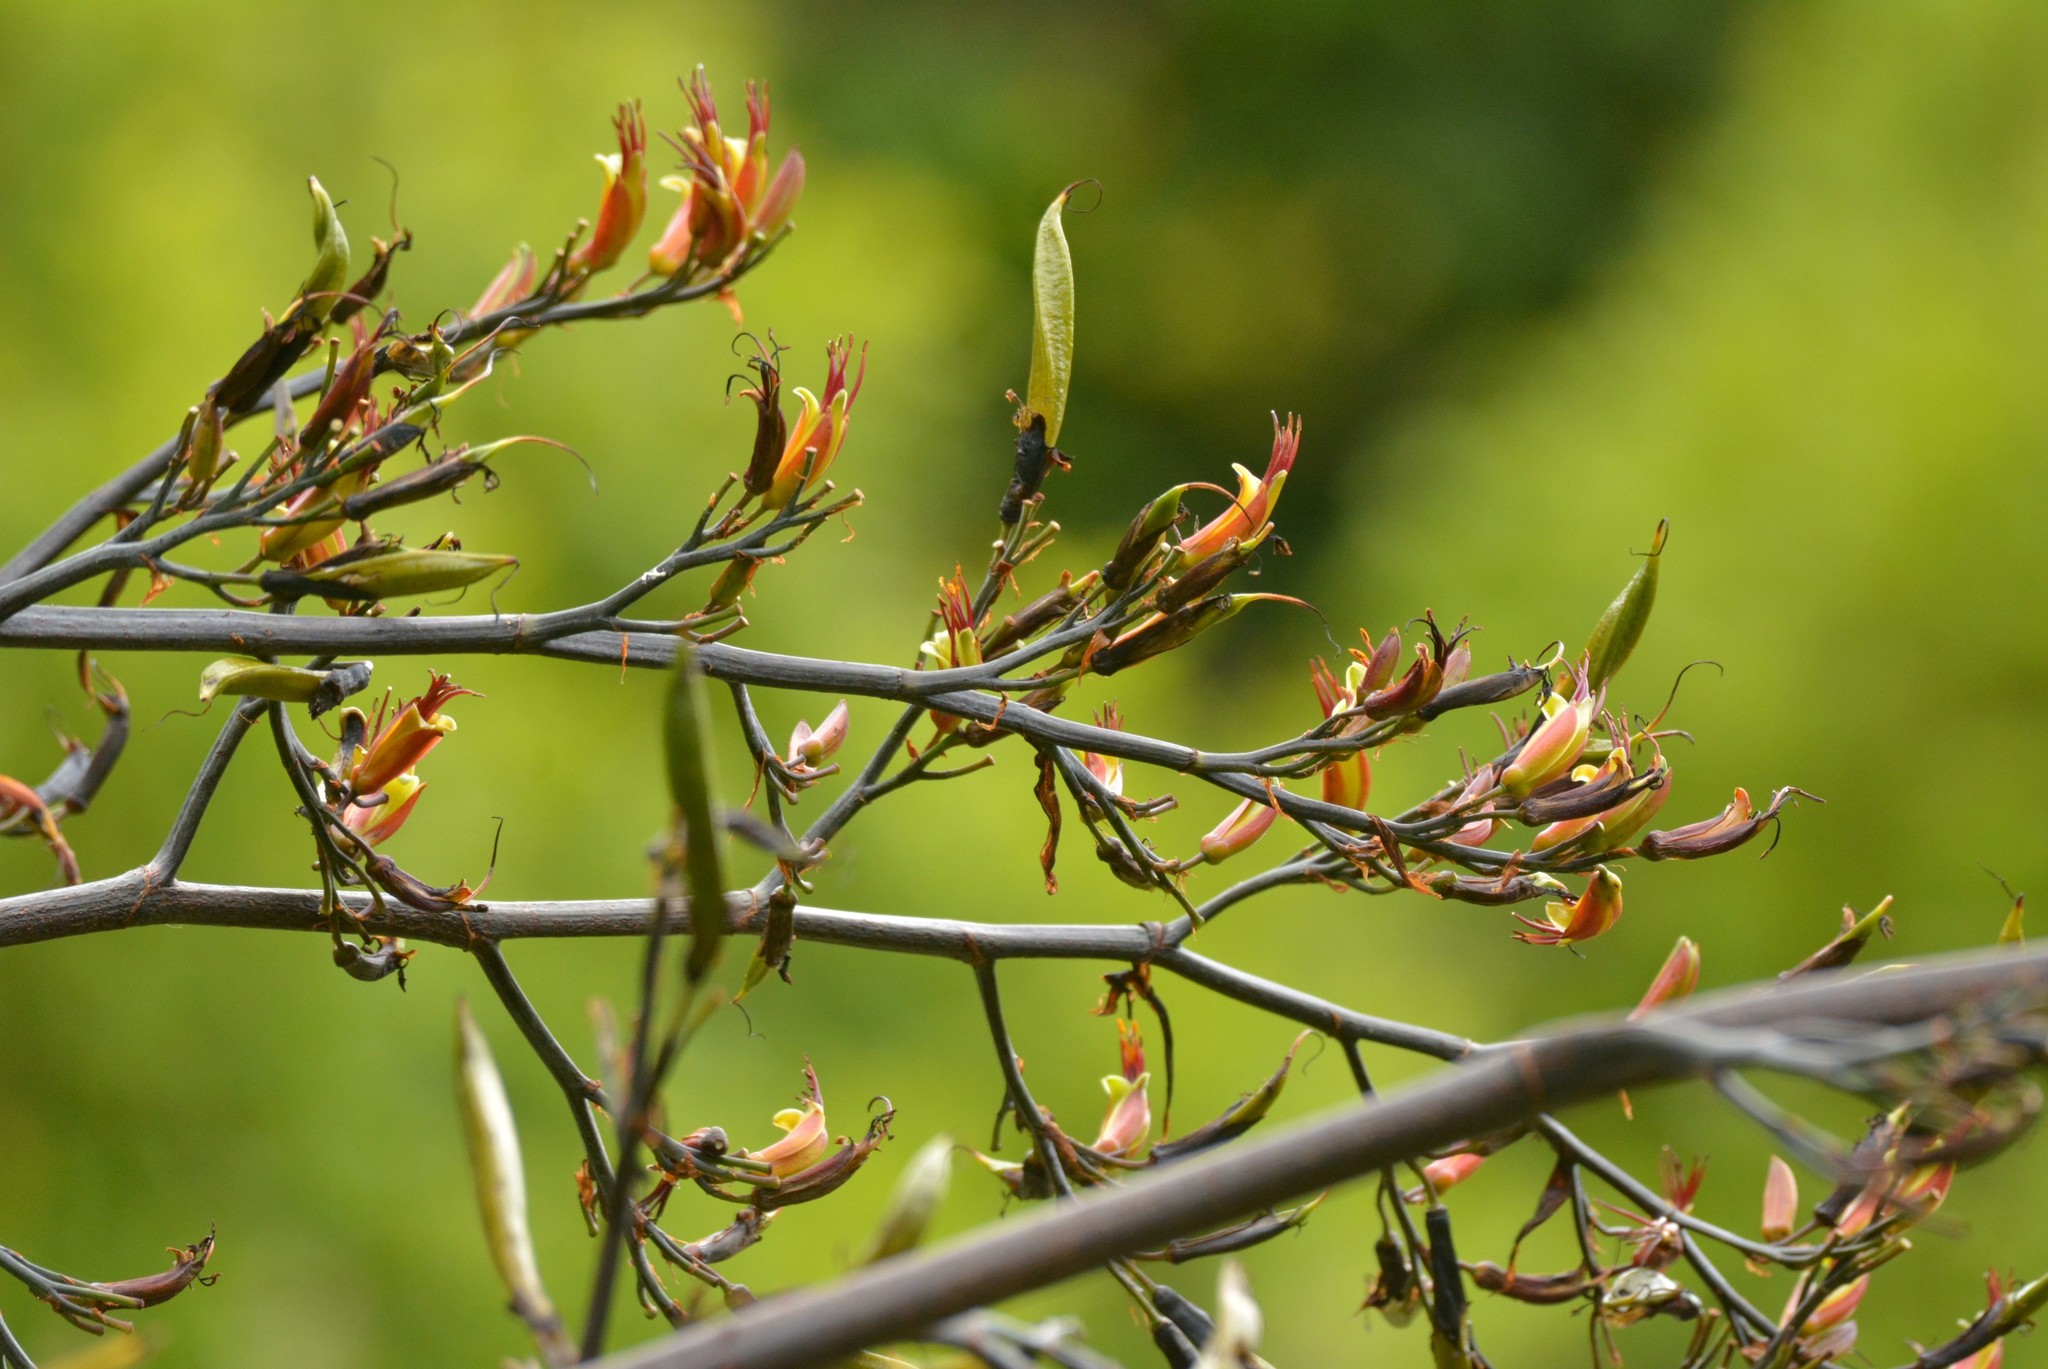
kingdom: Plantae
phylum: Tracheophyta
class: Liliopsida
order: Asparagales
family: Asphodelaceae
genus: Phormium
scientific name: Phormium tenax
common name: New zealand flax
